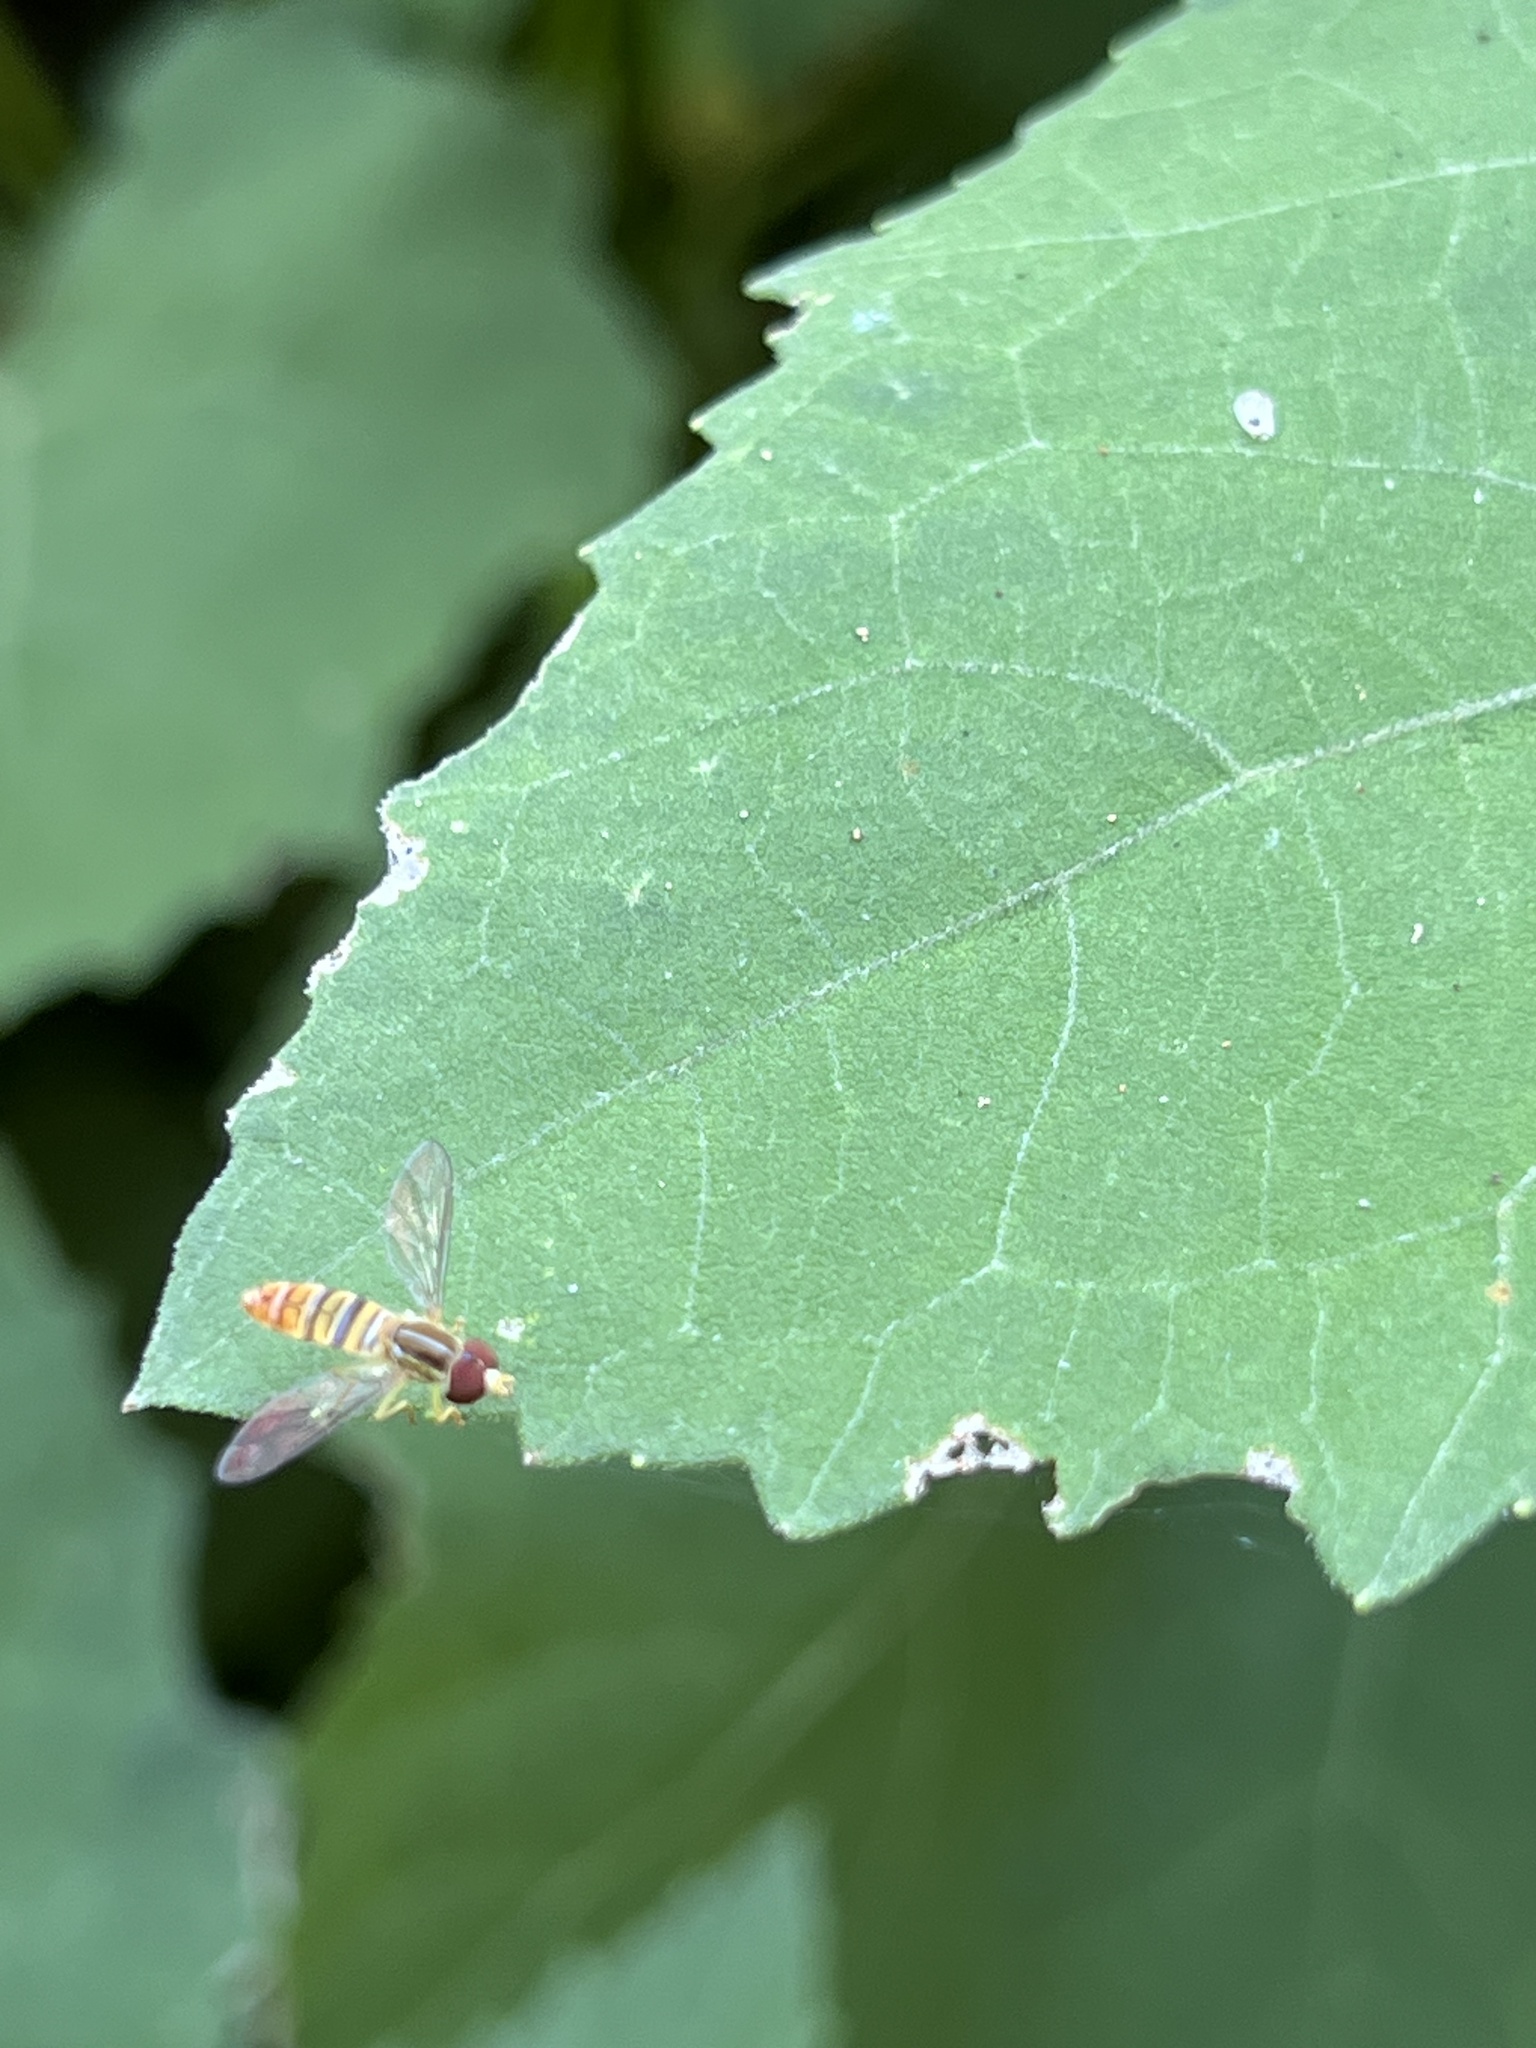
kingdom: Animalia
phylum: Arthropoda
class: Insecta
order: Diptera
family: Syrphidae
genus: Toxomerus
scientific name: Toxomerus politus
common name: Maize calligrapher
